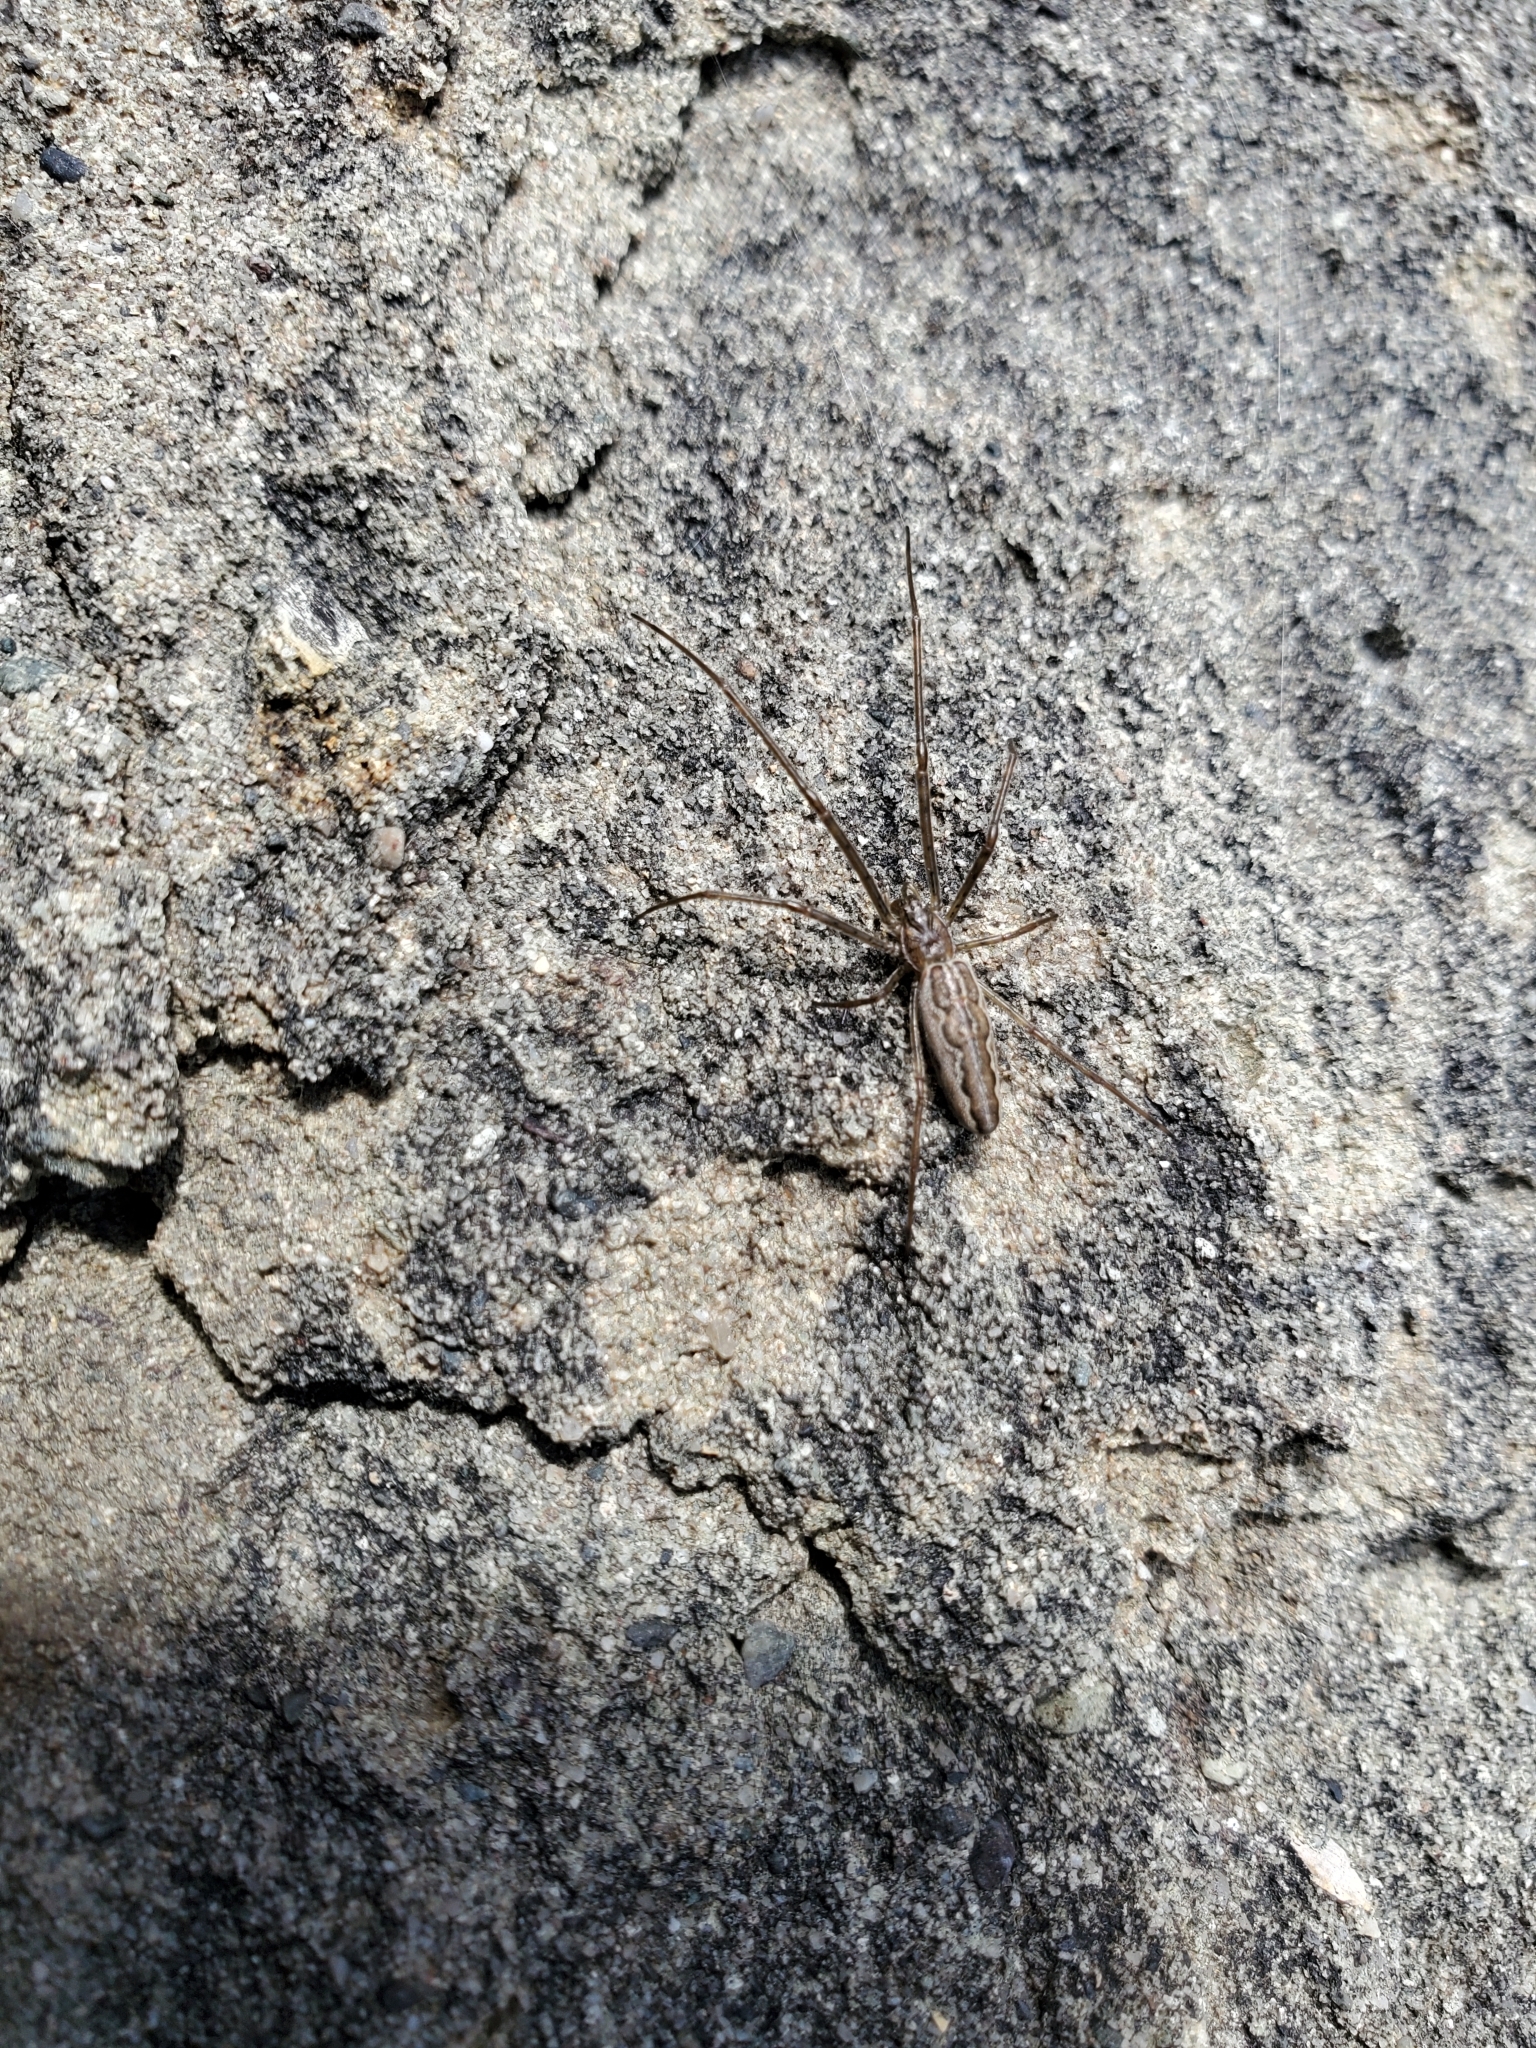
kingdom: Animalia
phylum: Arthropoda
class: Arachnida
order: Araneae
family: Tetragnathidae
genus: Tetragnatha
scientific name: Tetragnatha
